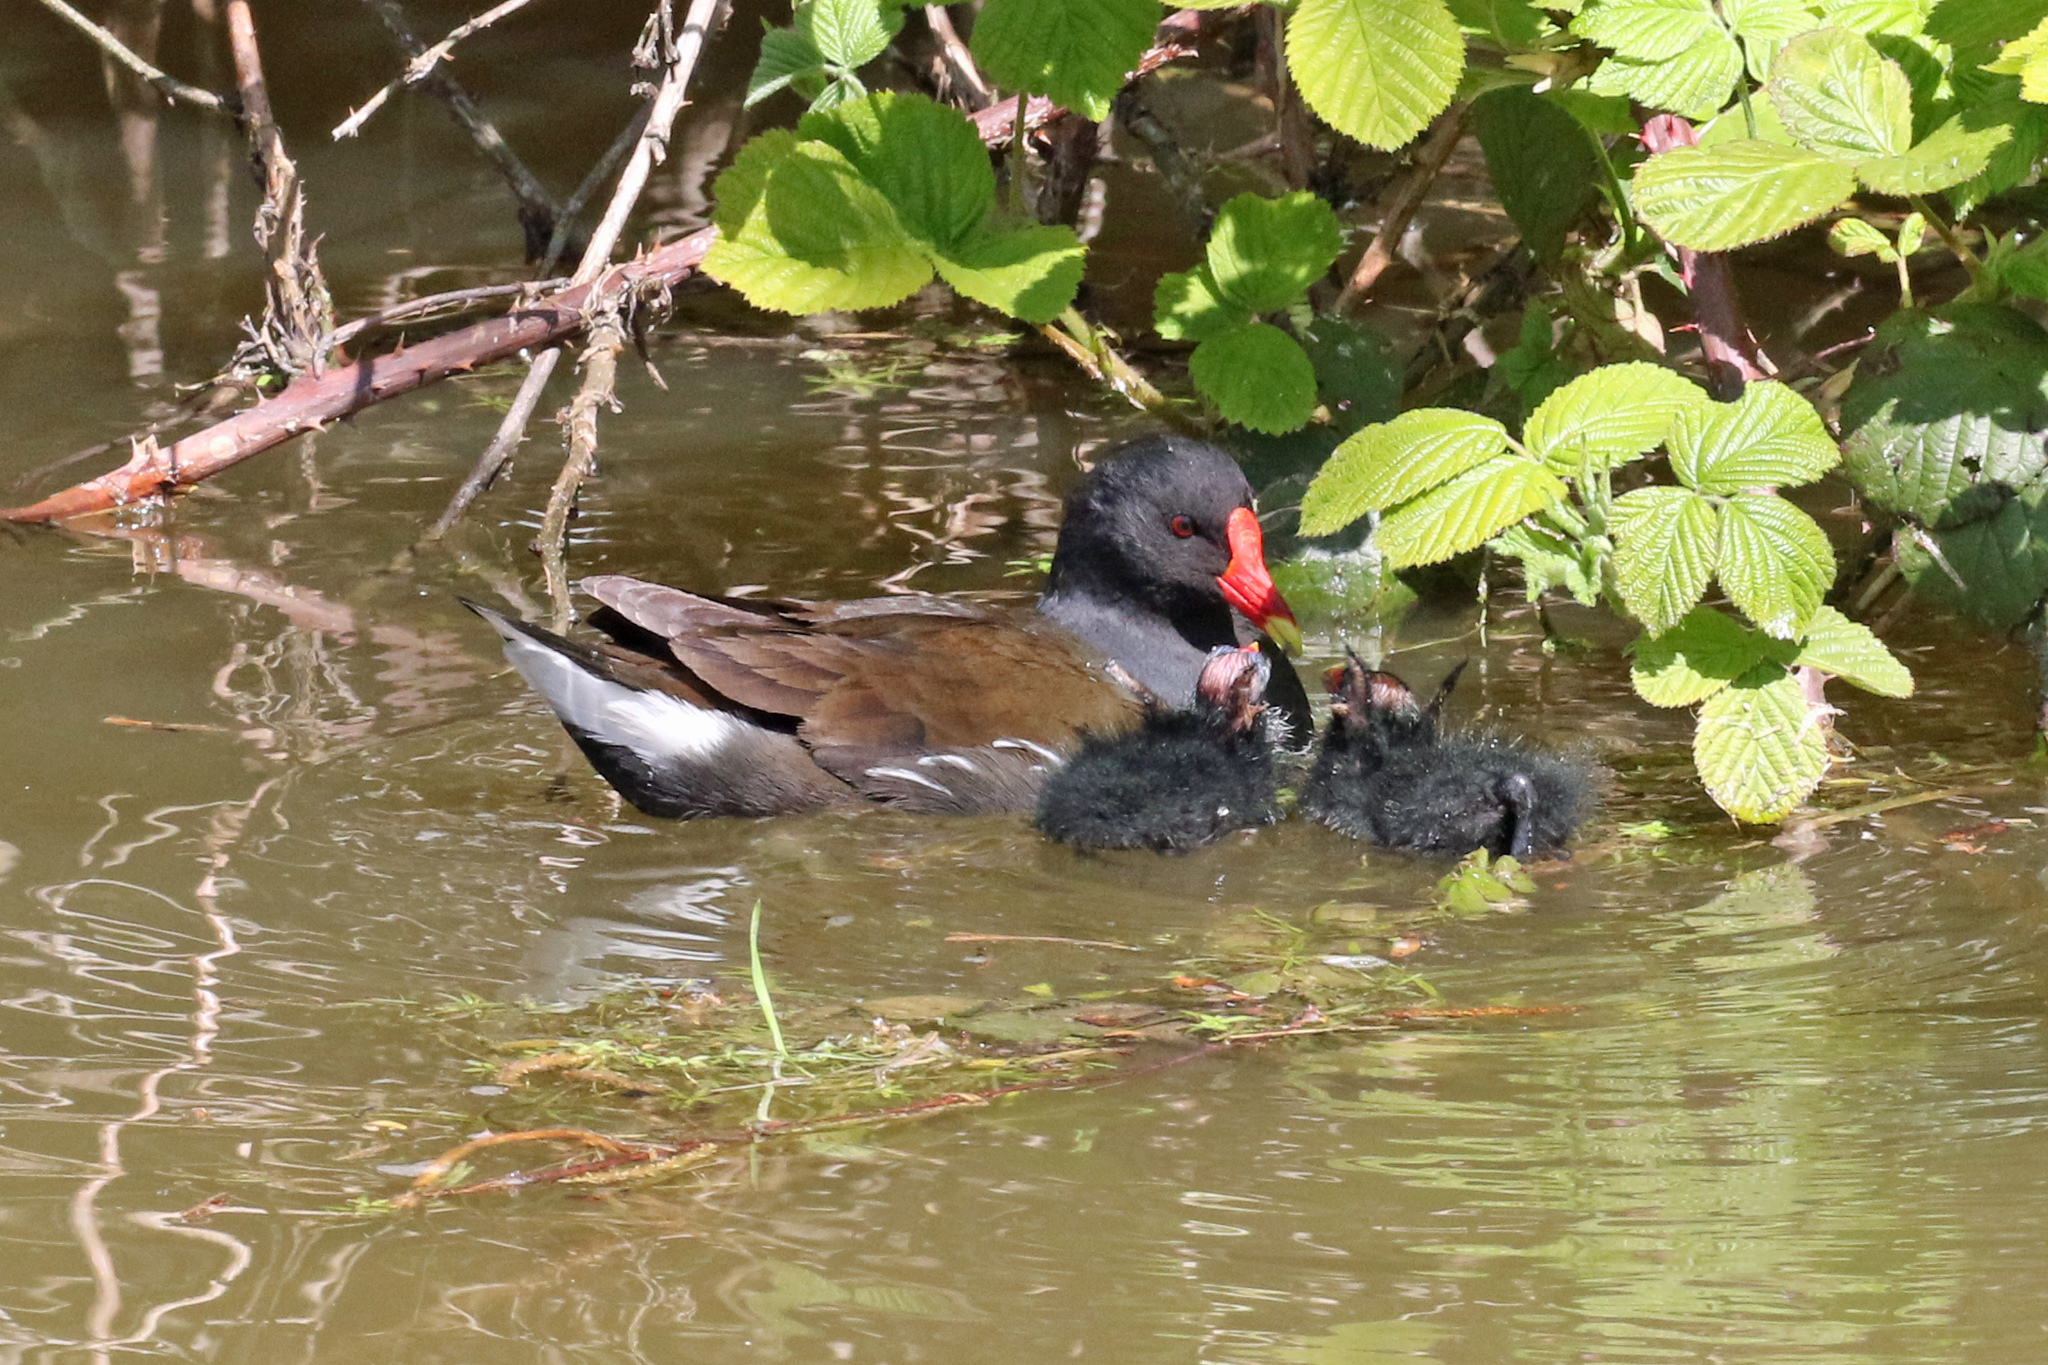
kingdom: Animalia
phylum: Chordata
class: Aves
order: Gruiformes
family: Rallidae
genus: Gallinula
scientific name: Gallinula chloropus
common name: Common moorhen
